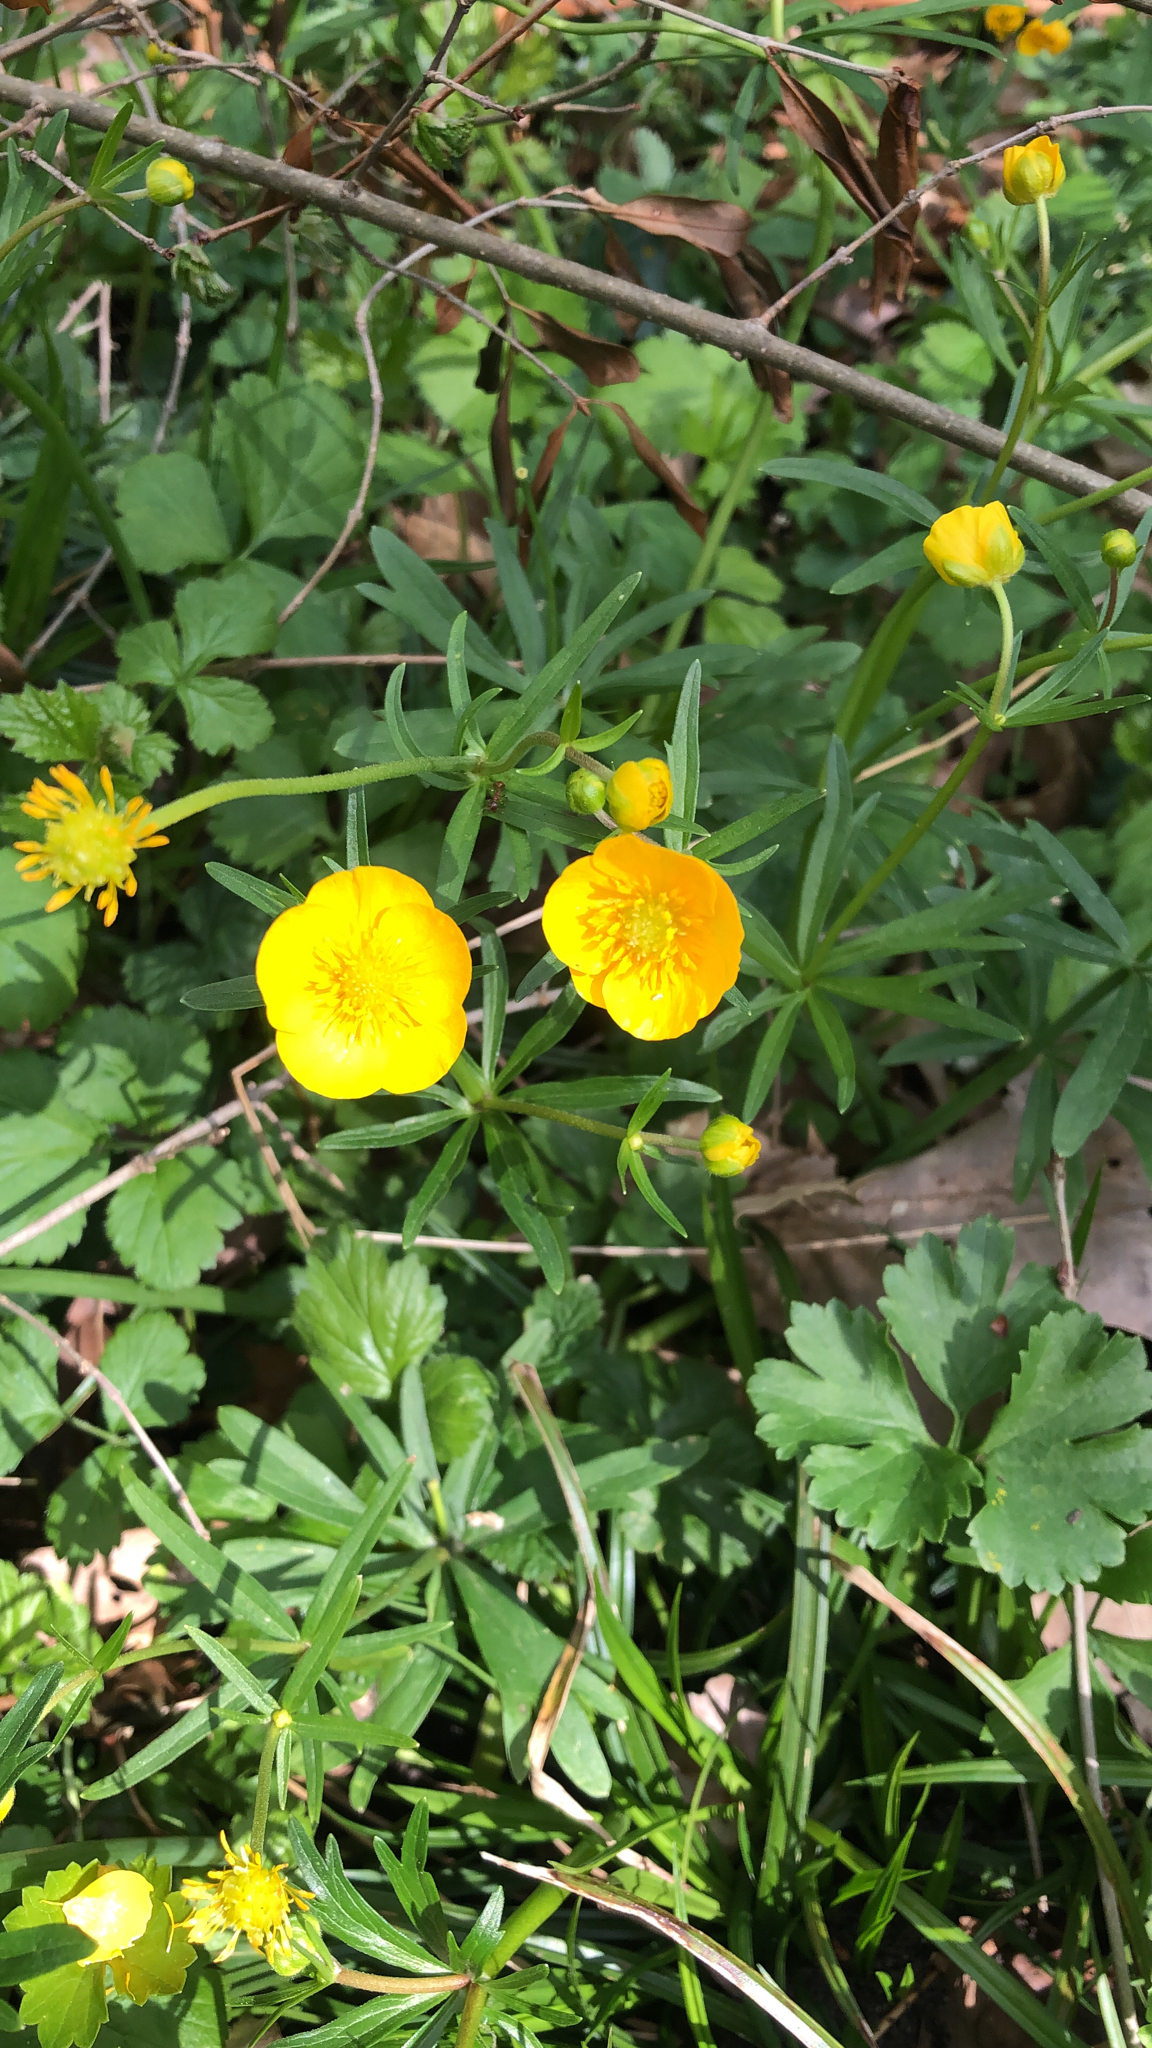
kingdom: Plantae
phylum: Tracheophyta
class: Magnoliopsida
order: Ranunculales
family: Ranunculaceae
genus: Ranunculus
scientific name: Ranunculus auricomus
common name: Goldilocks buttercup
